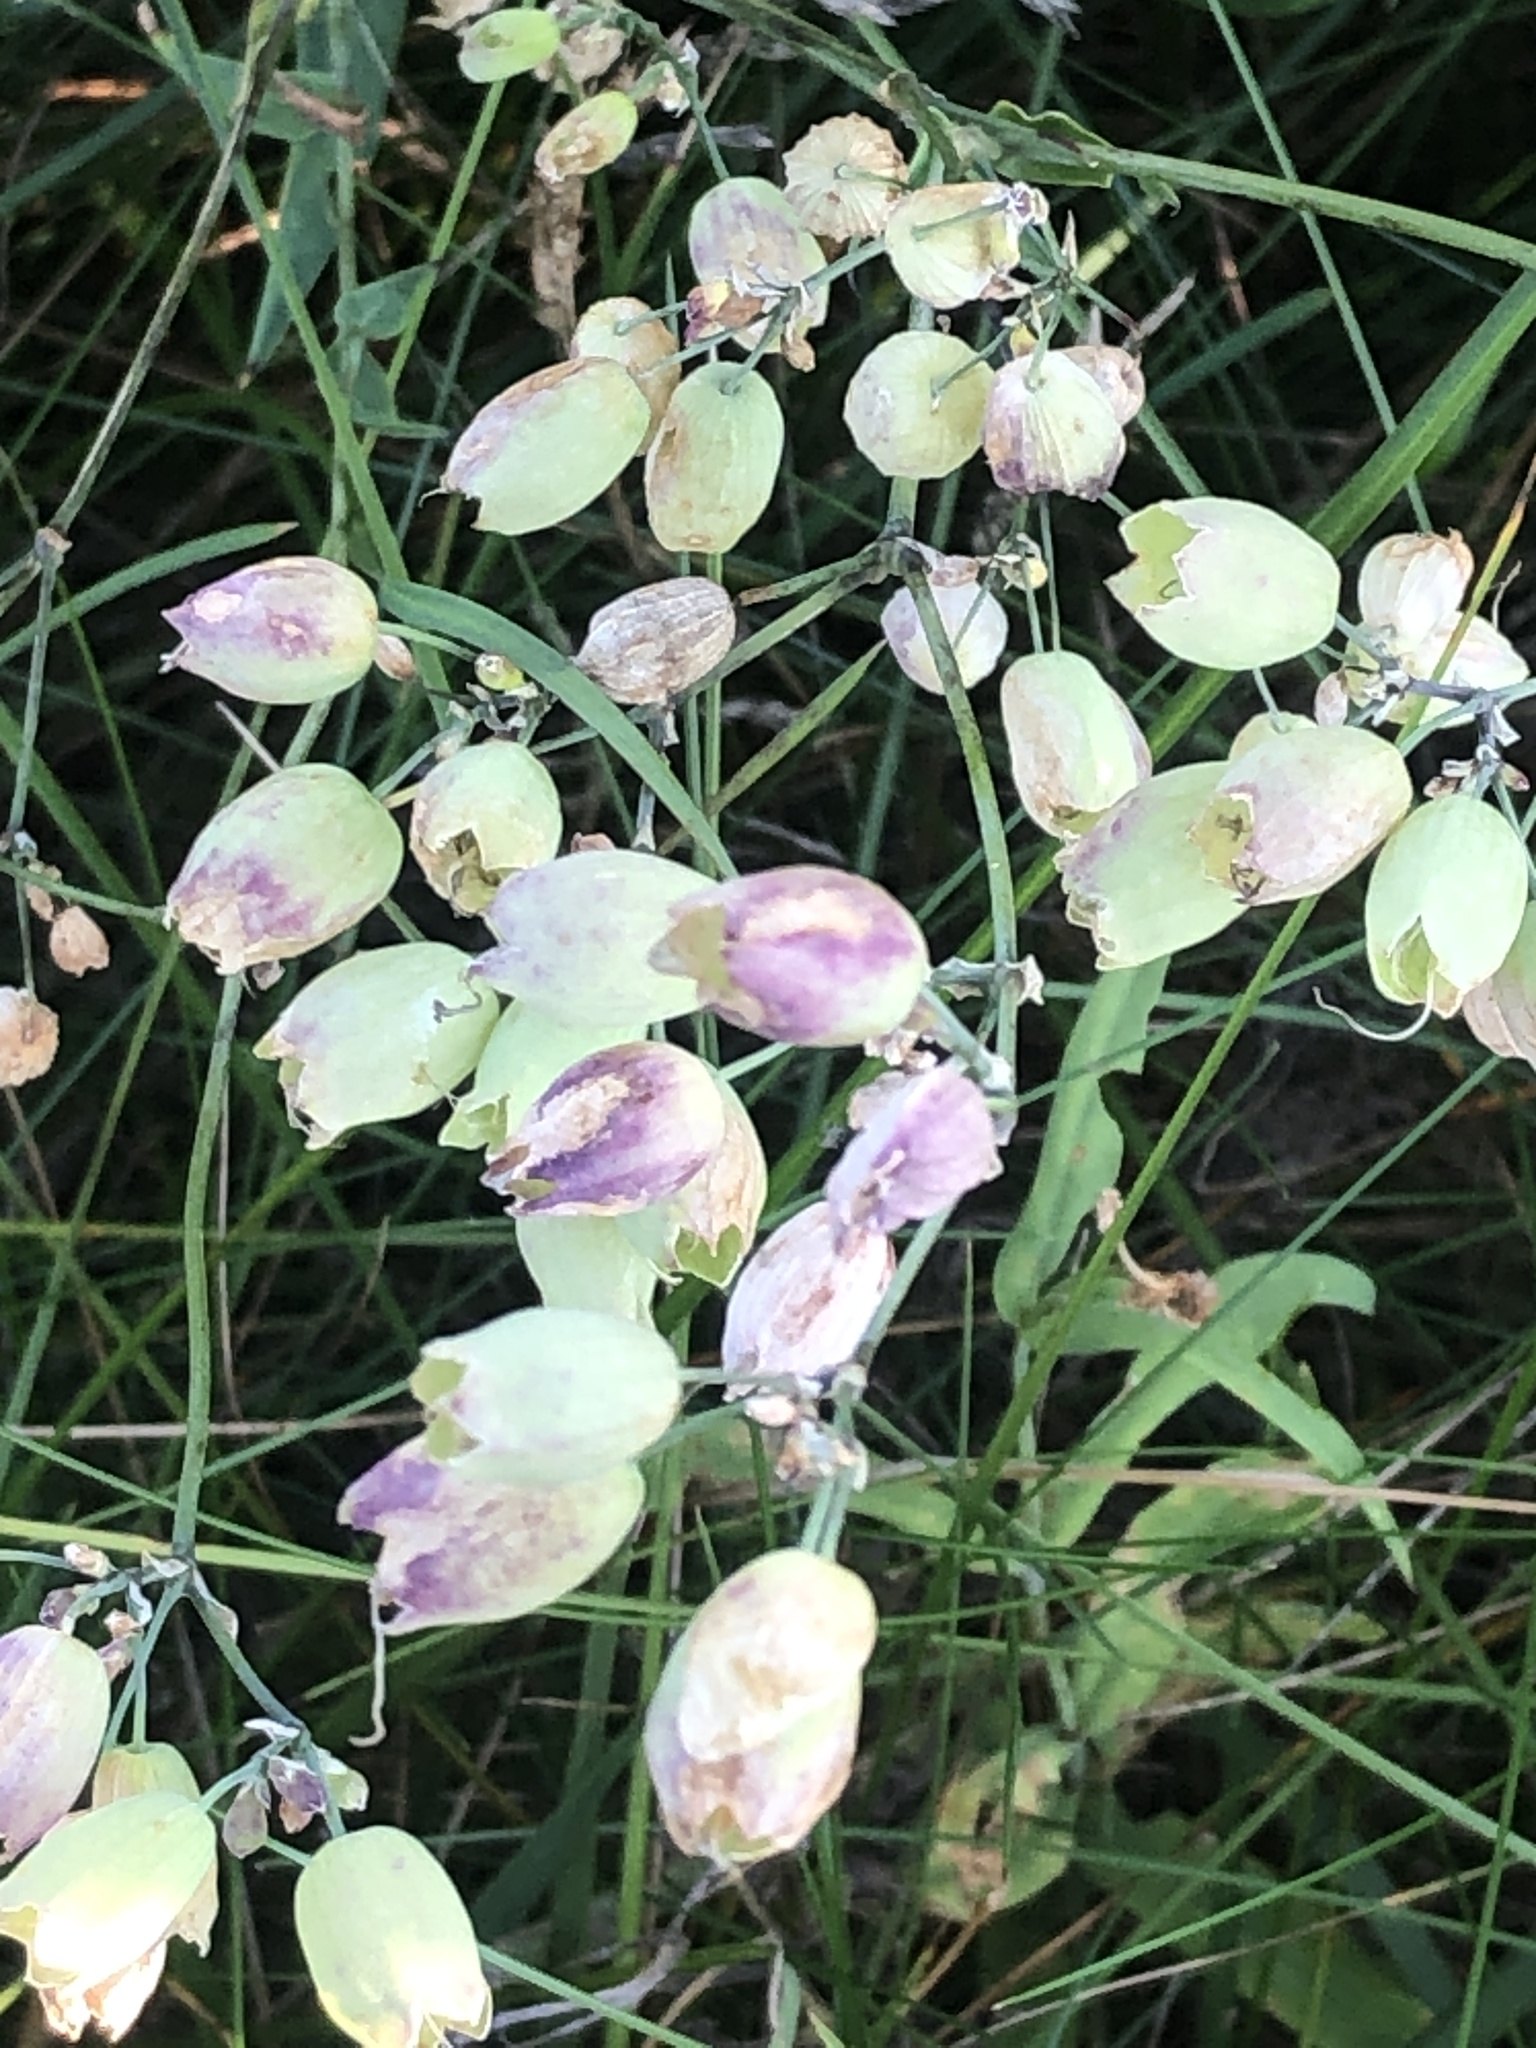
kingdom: Plantae
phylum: Tracheophyta
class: Magnoliopsida
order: Caryophyllales
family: Caryophyllaceae
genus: Silene
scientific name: Silene vulgaris
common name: Bladder campion
